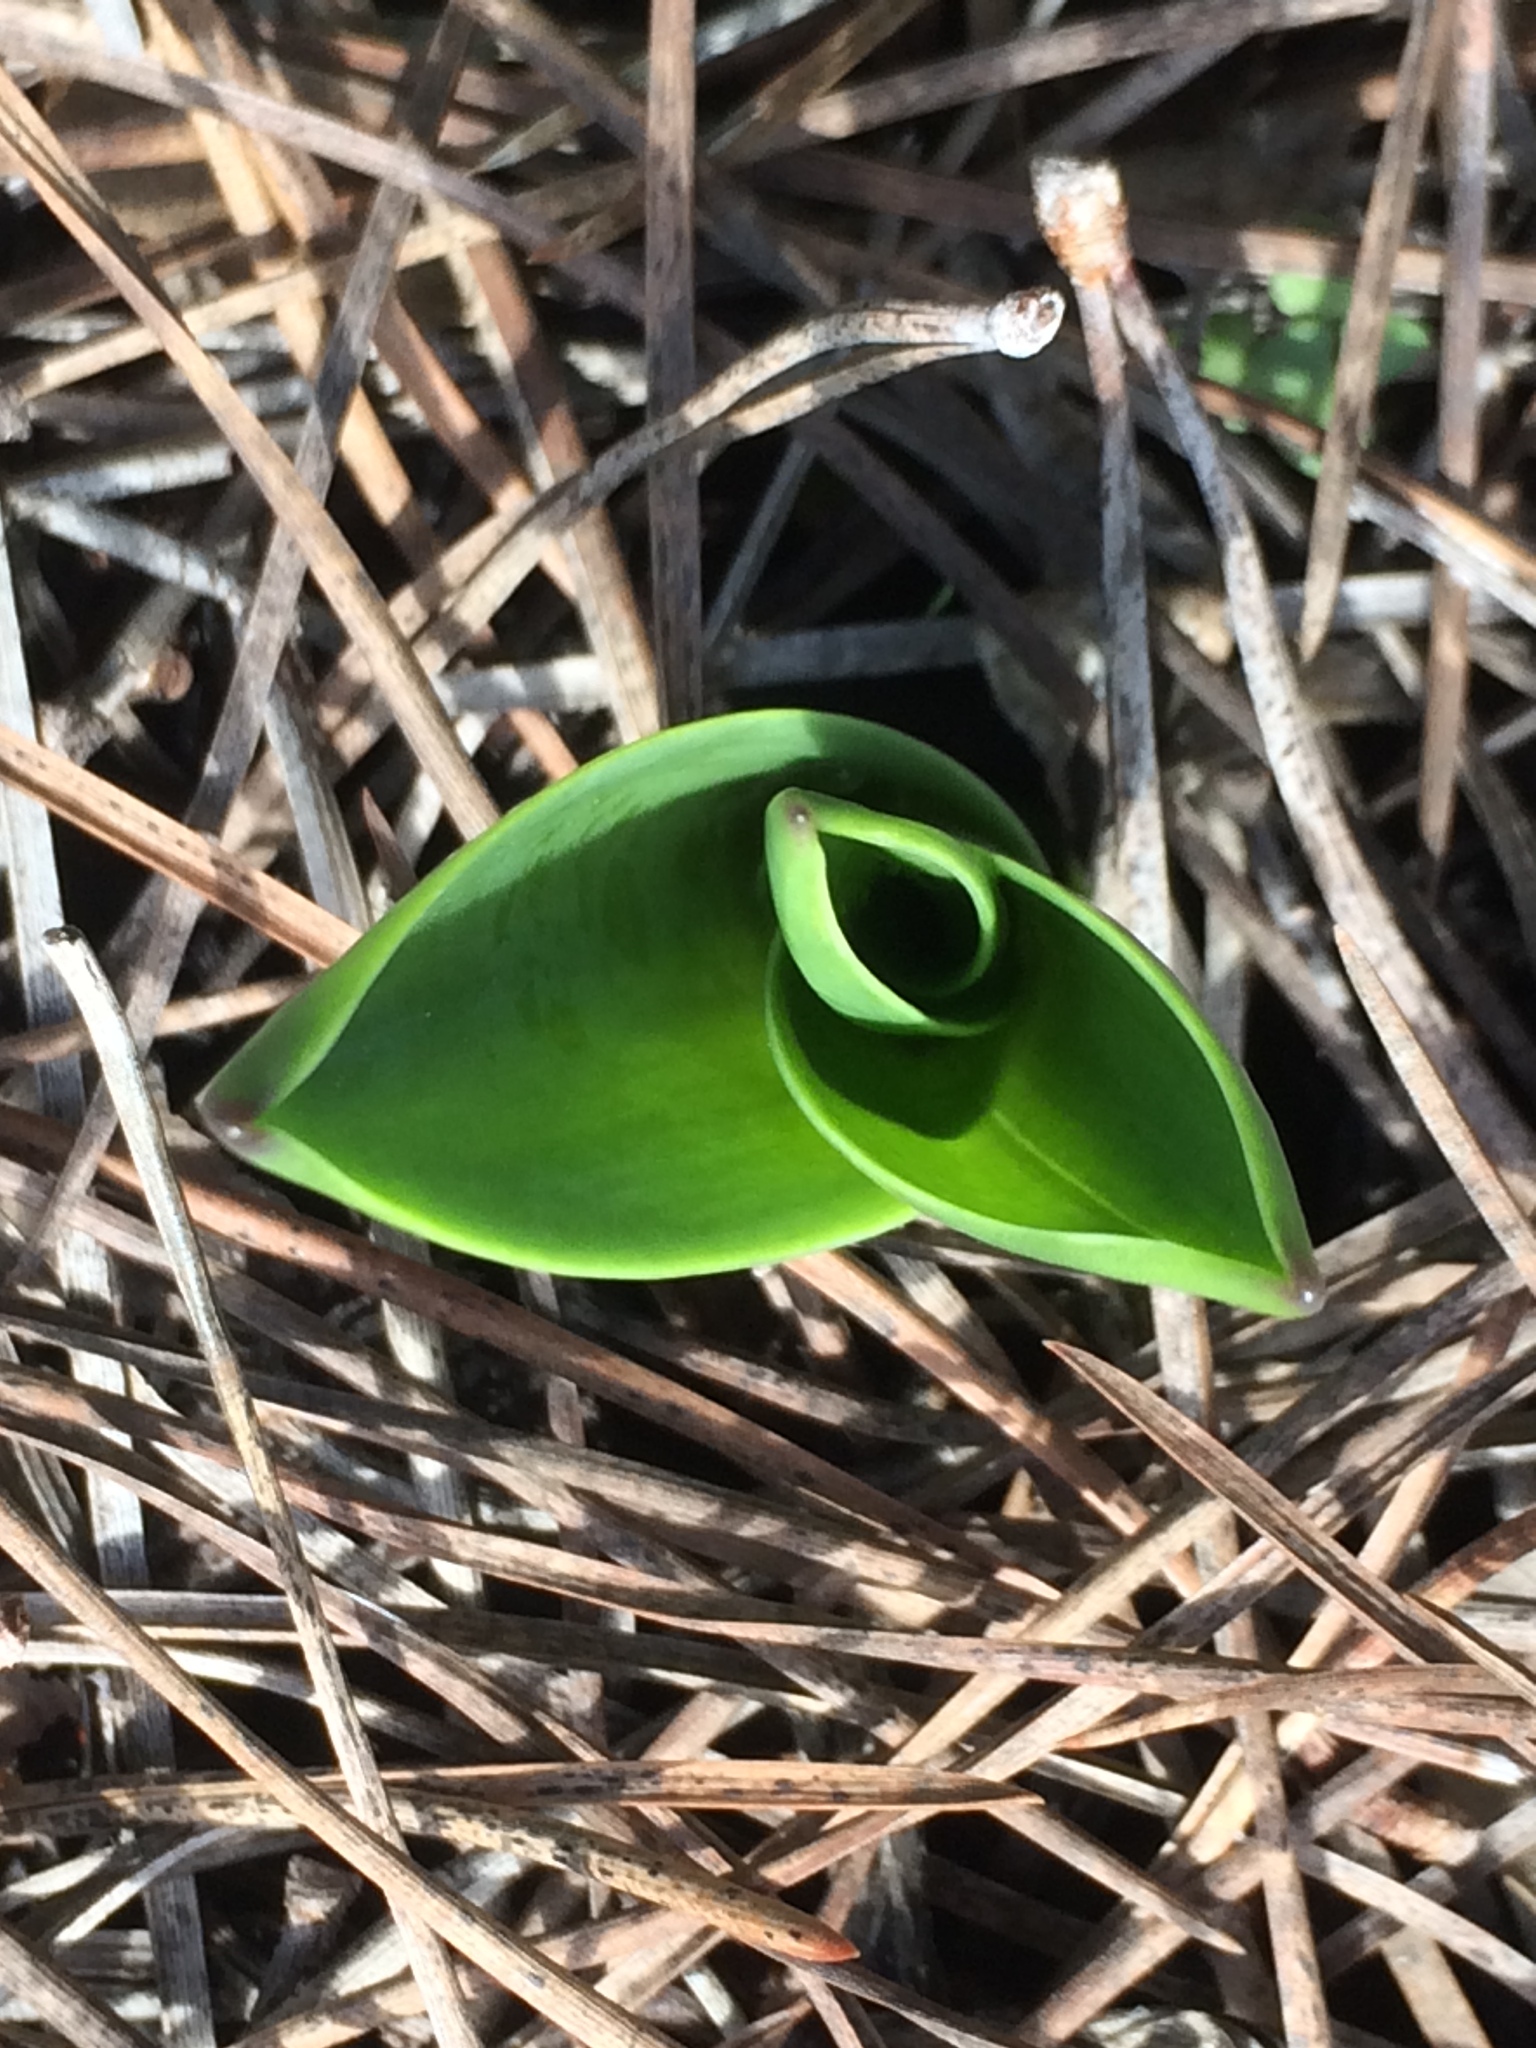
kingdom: Plantae
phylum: Tracheophyta
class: Liliopsida
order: Asparagales
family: Asparagaceae
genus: Drimia
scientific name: Drimia maritima
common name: Maritime squill
